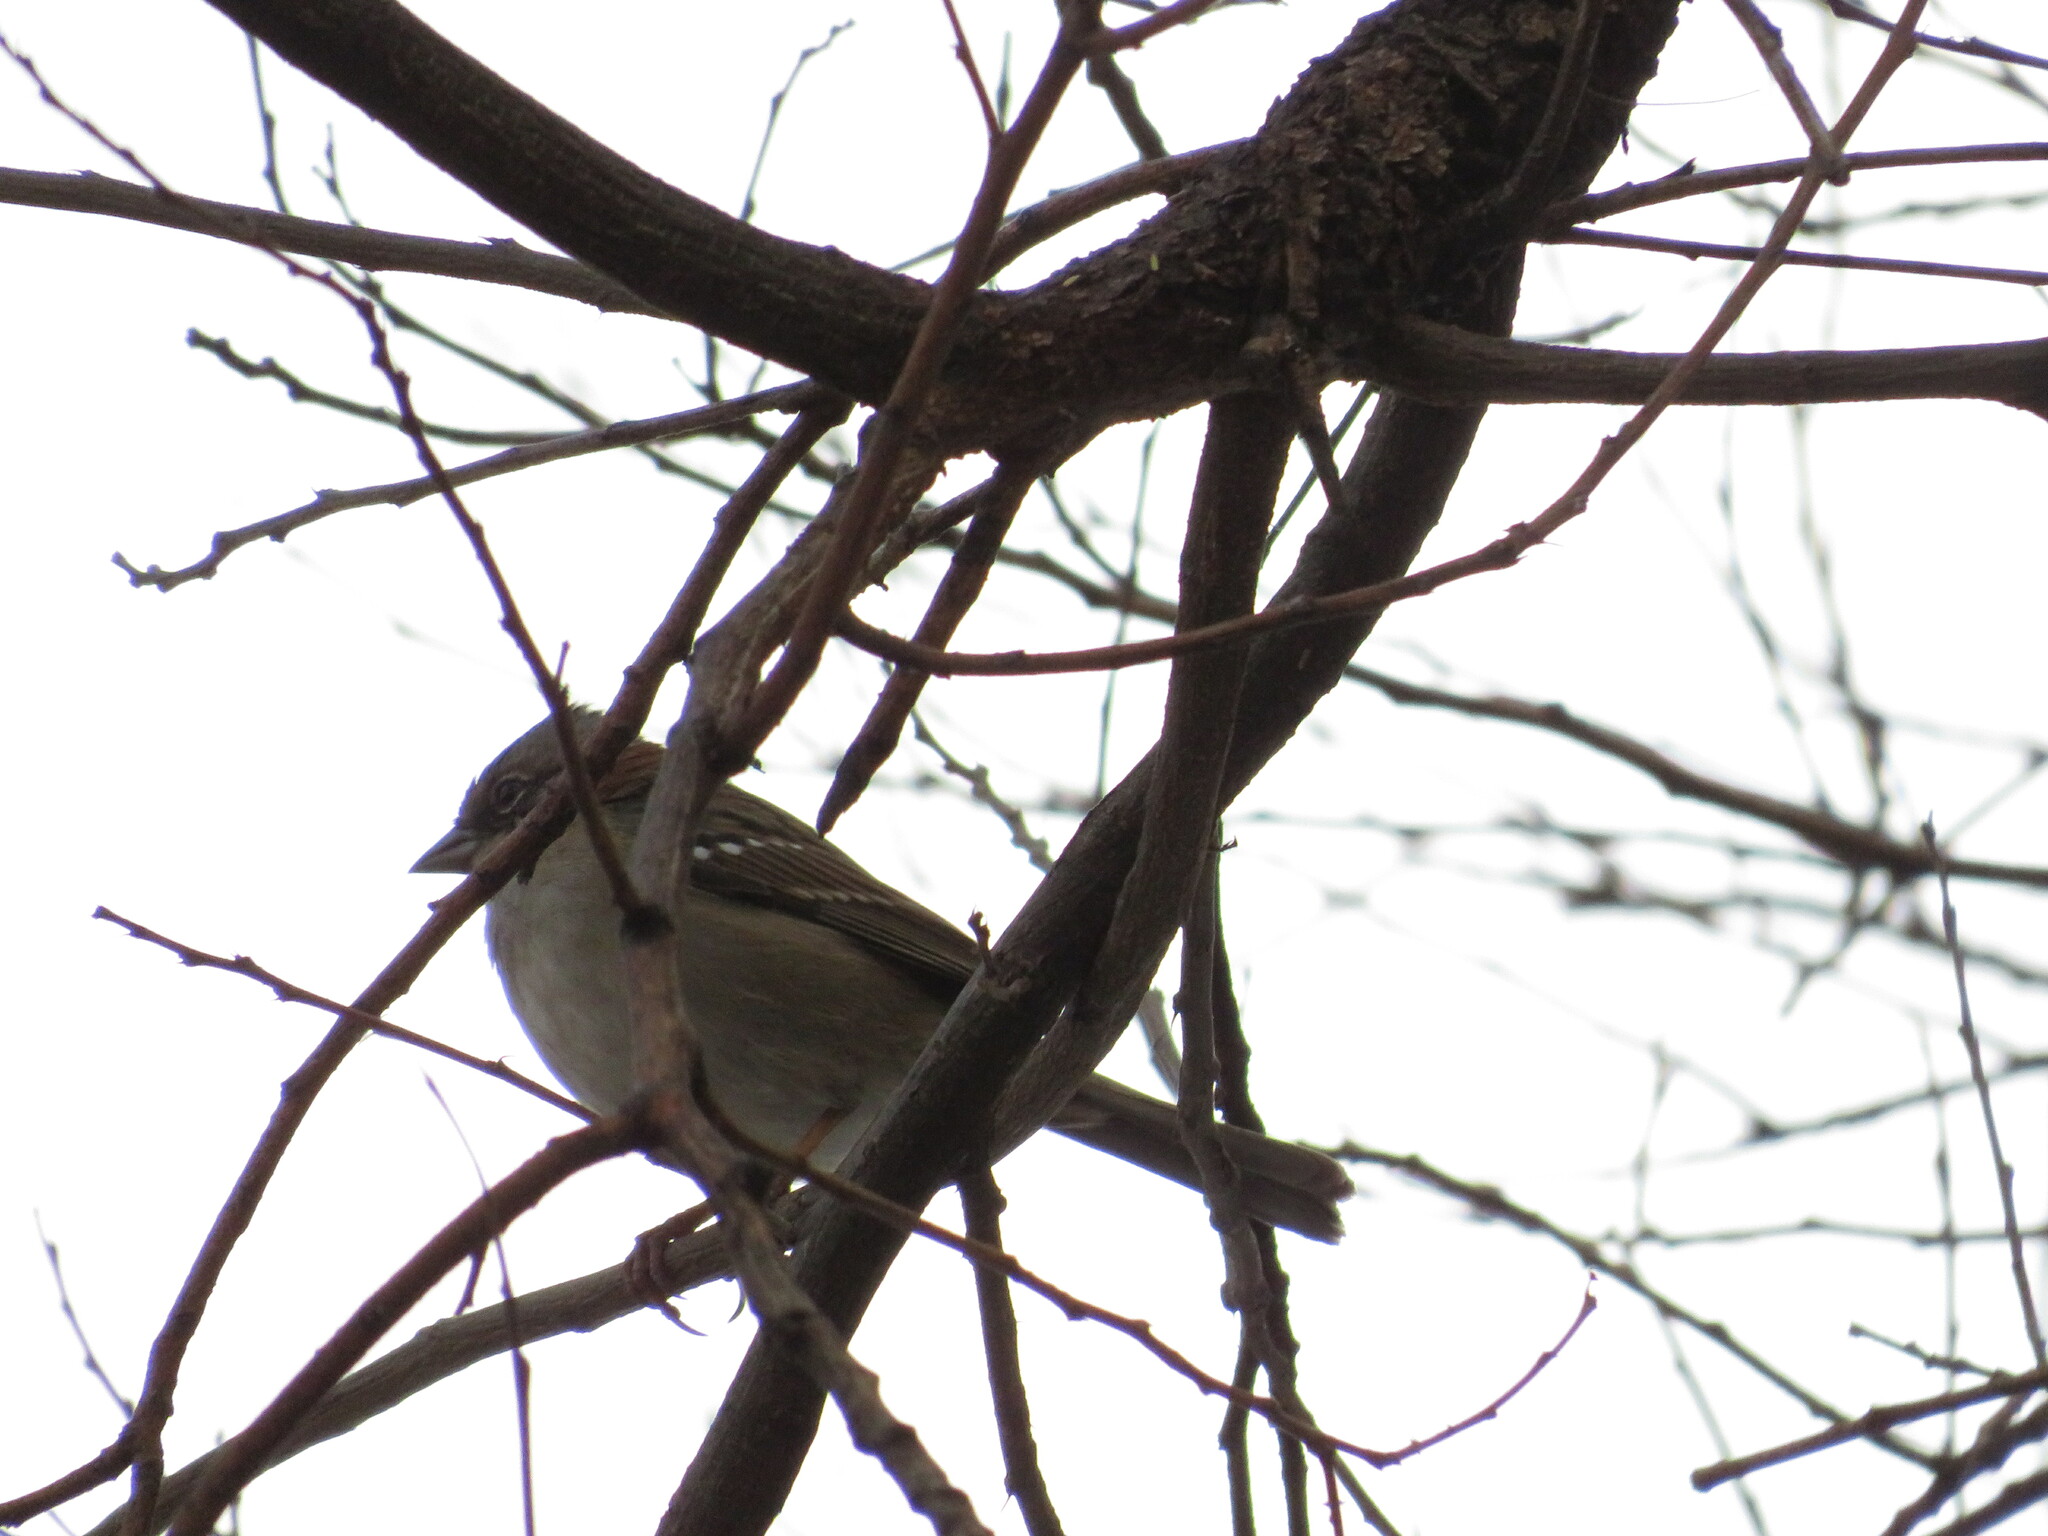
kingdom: Animalia
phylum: Chordata
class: Aves
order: Passeriformes
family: Passerellidae
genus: Zonotrichia
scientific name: Zonotrichia capensis
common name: Rufous-collared sparrow
